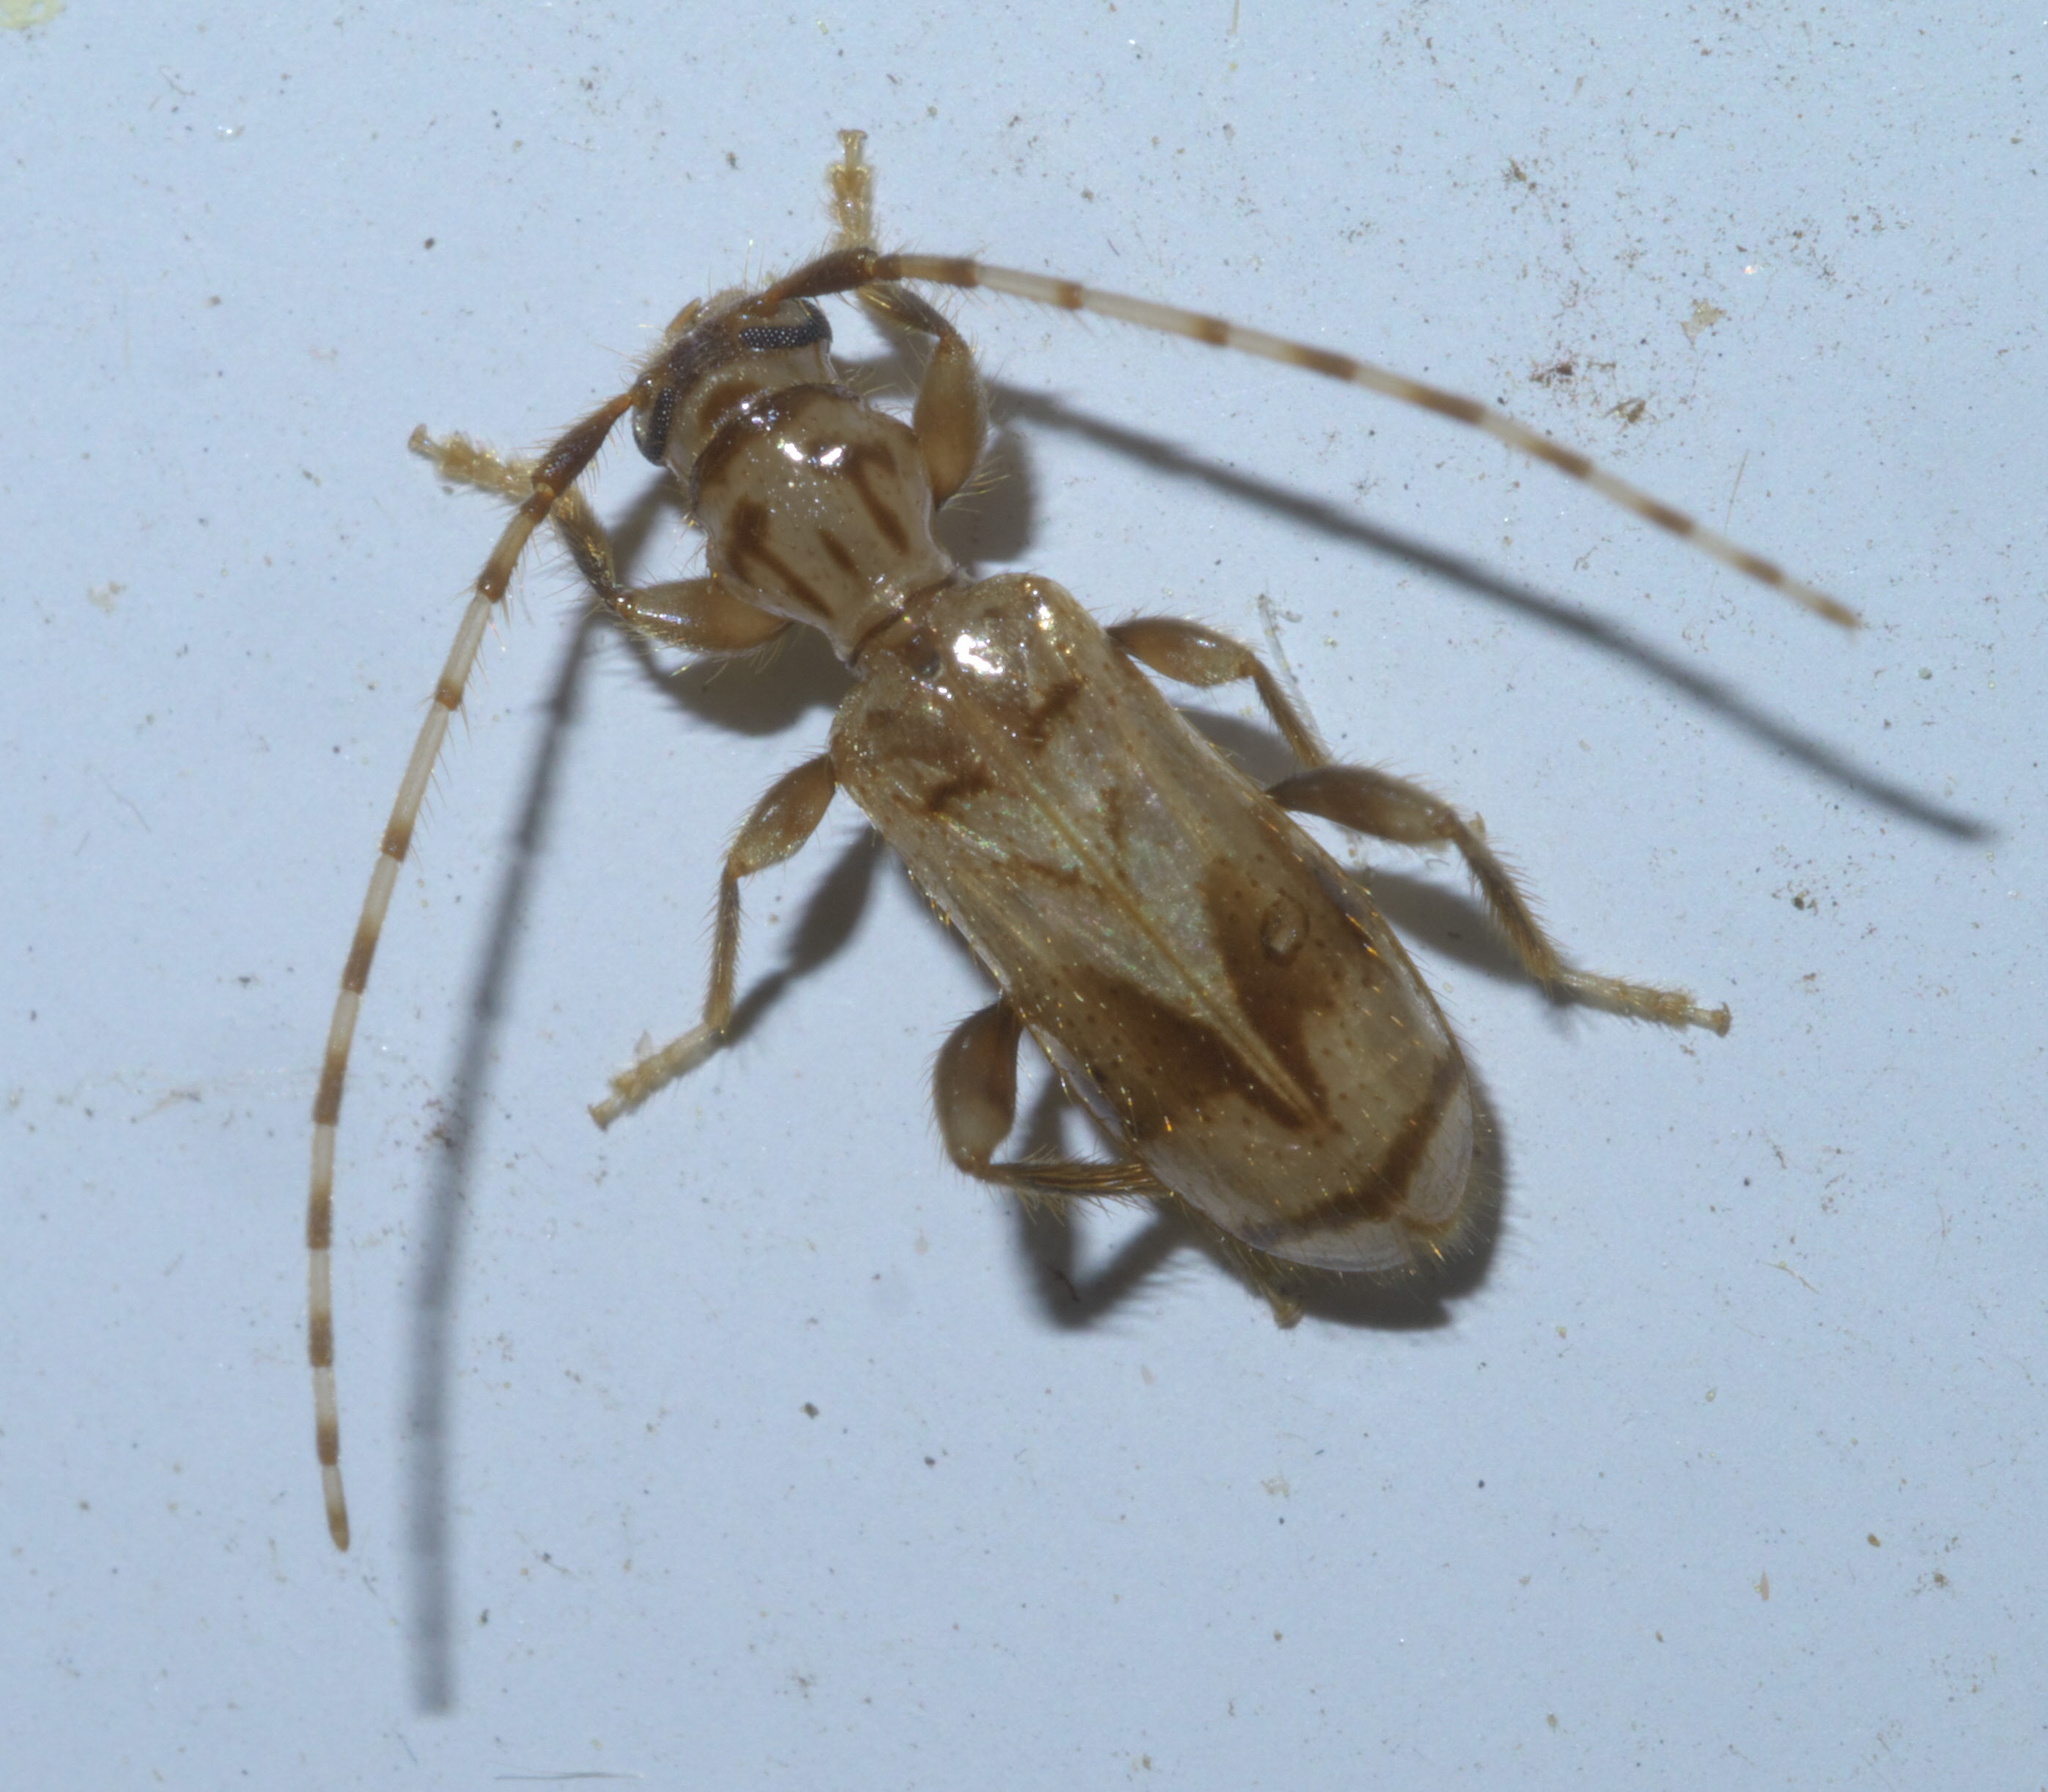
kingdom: Animalia
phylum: Arthropoda
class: Insecta
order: Coleoptera
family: Cerambycidae
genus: Obrium
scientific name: Obrium maculatum
